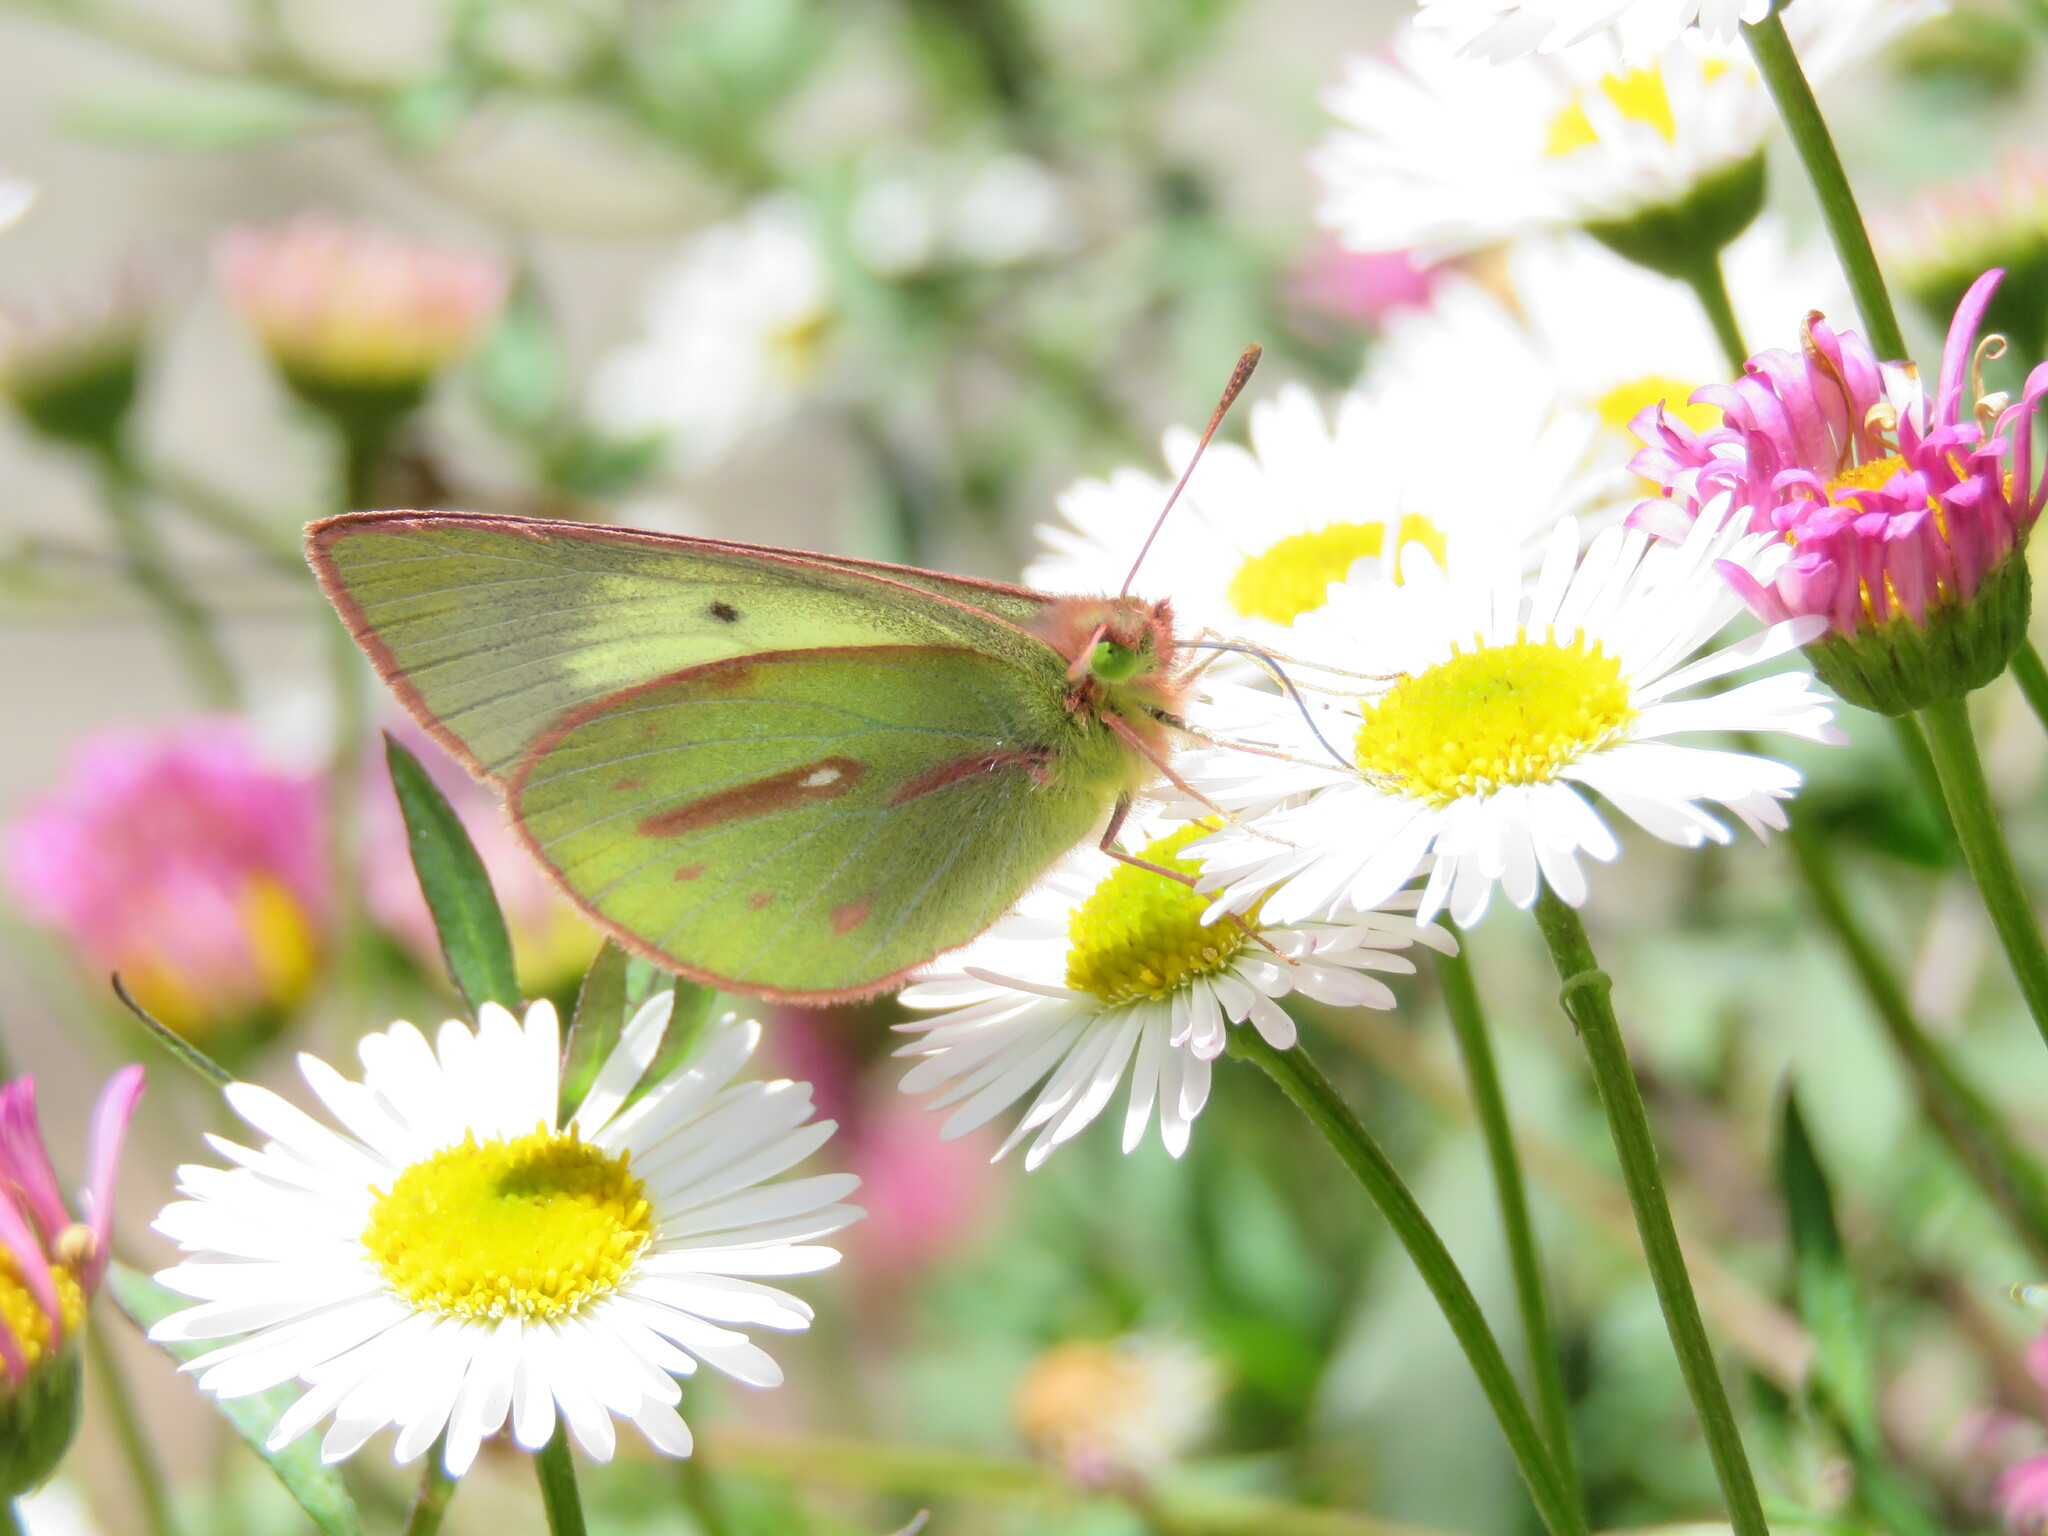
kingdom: Animalia
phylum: Arthropoda
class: Insecta
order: Lepidoptera
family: Pieridae
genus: Colias
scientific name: Colias dimera
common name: Dimera sulphur
